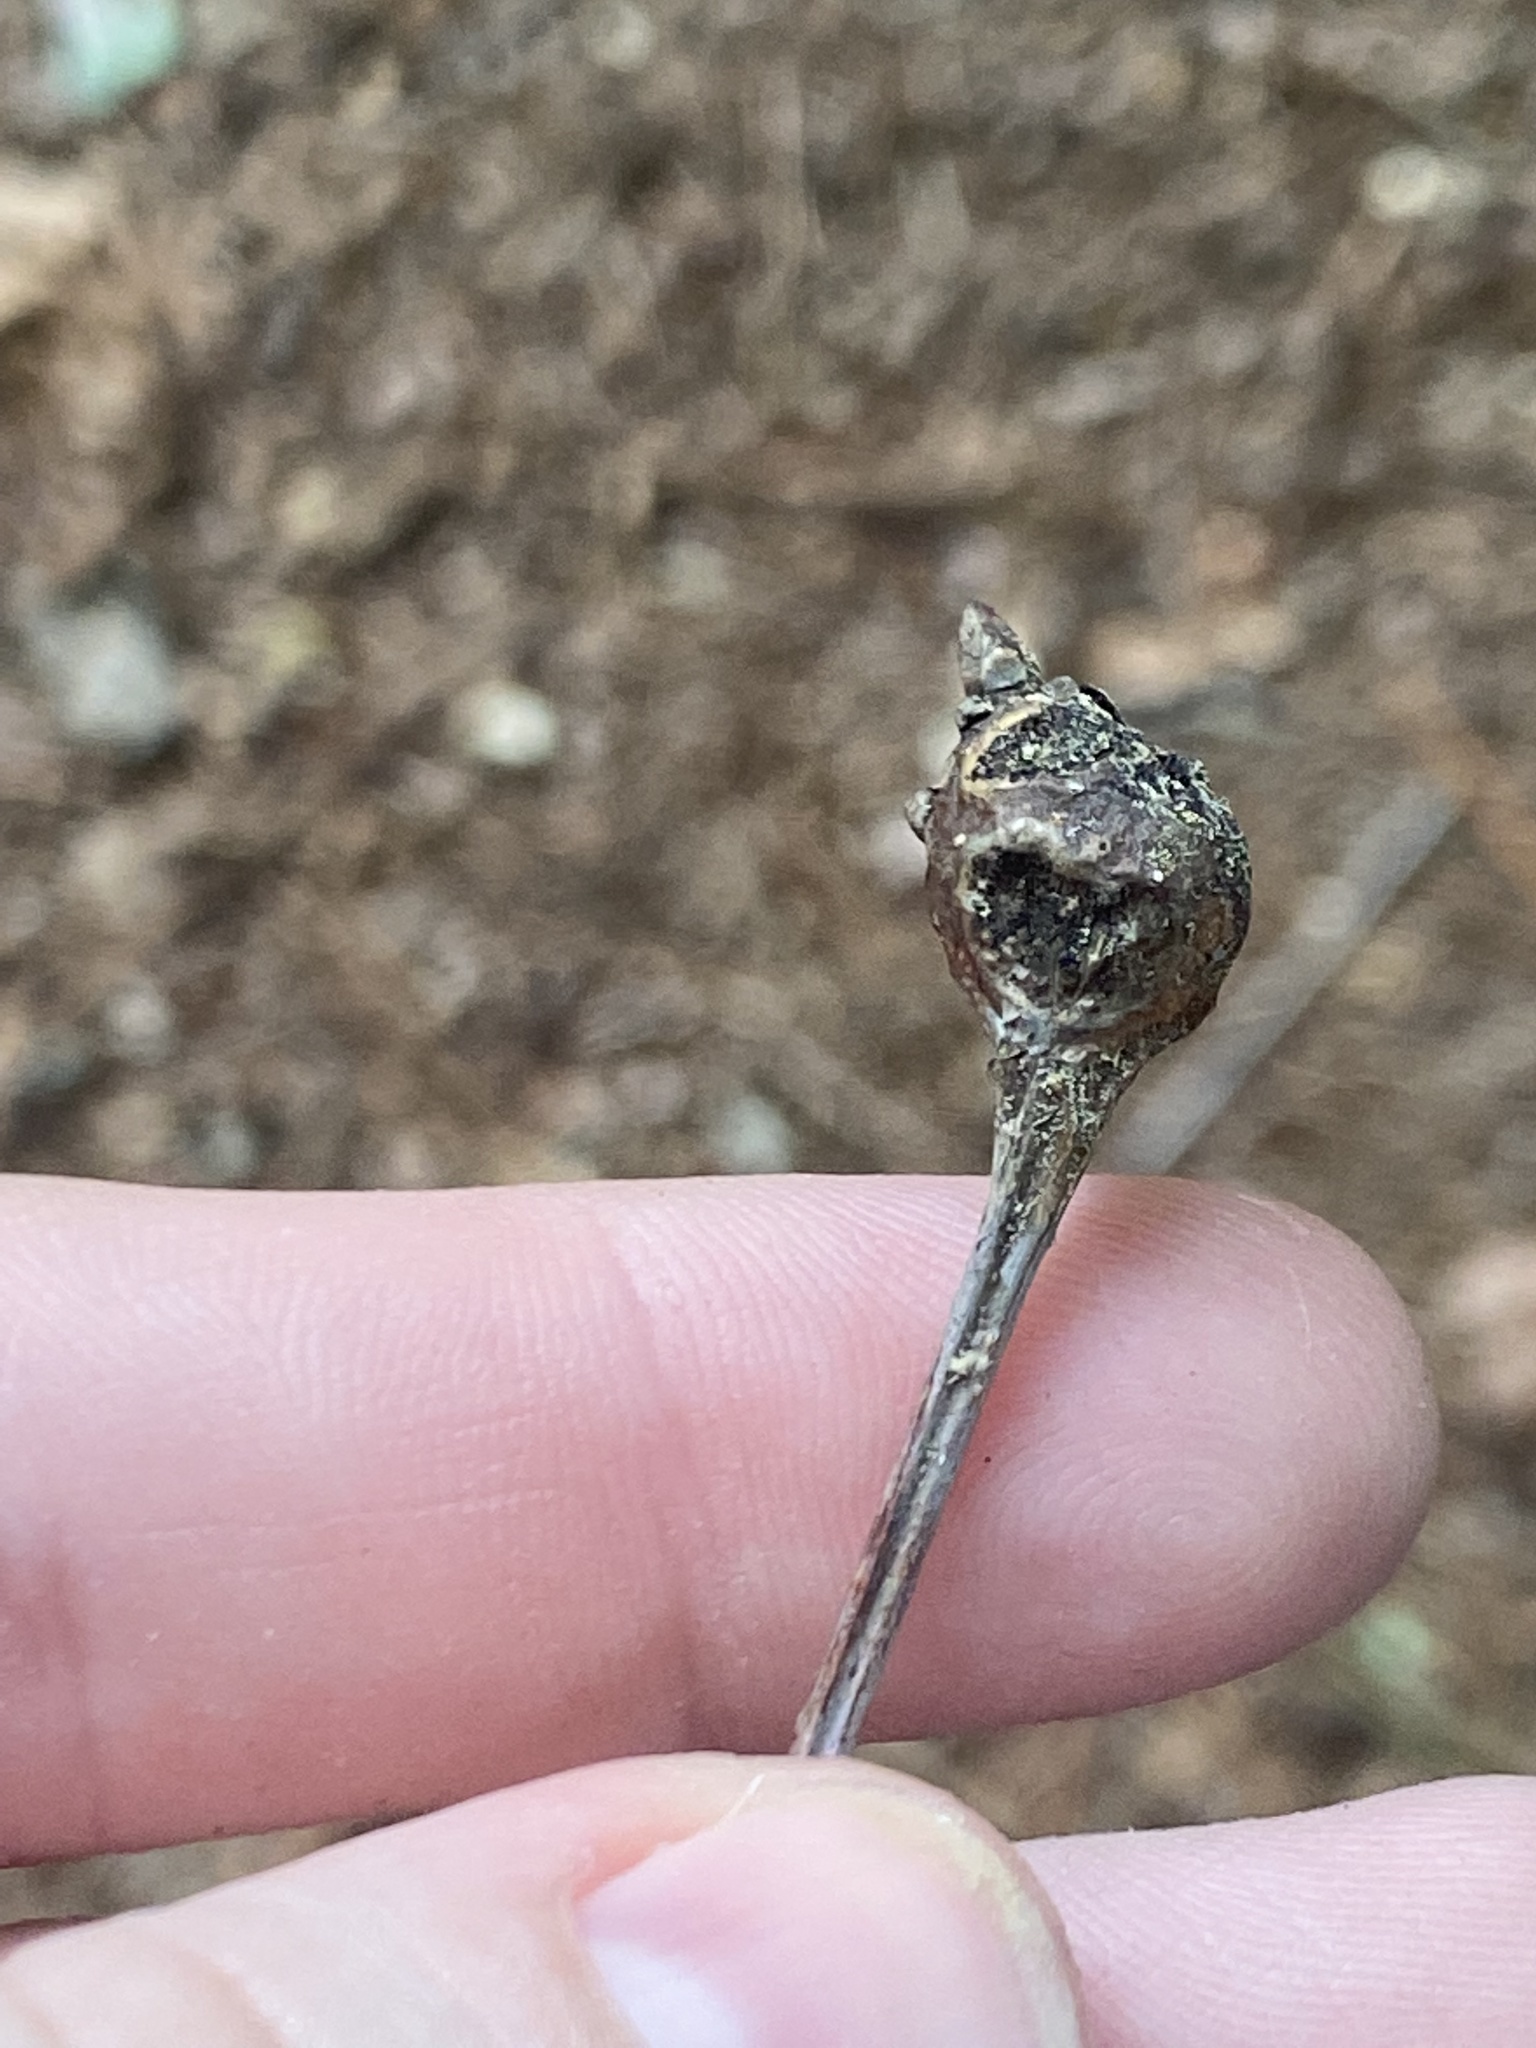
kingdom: Animalia
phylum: Arthropoda
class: Insecta
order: Hymenoptera
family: Cynipidae
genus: Callirhytis
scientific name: Callirhytis clavula
